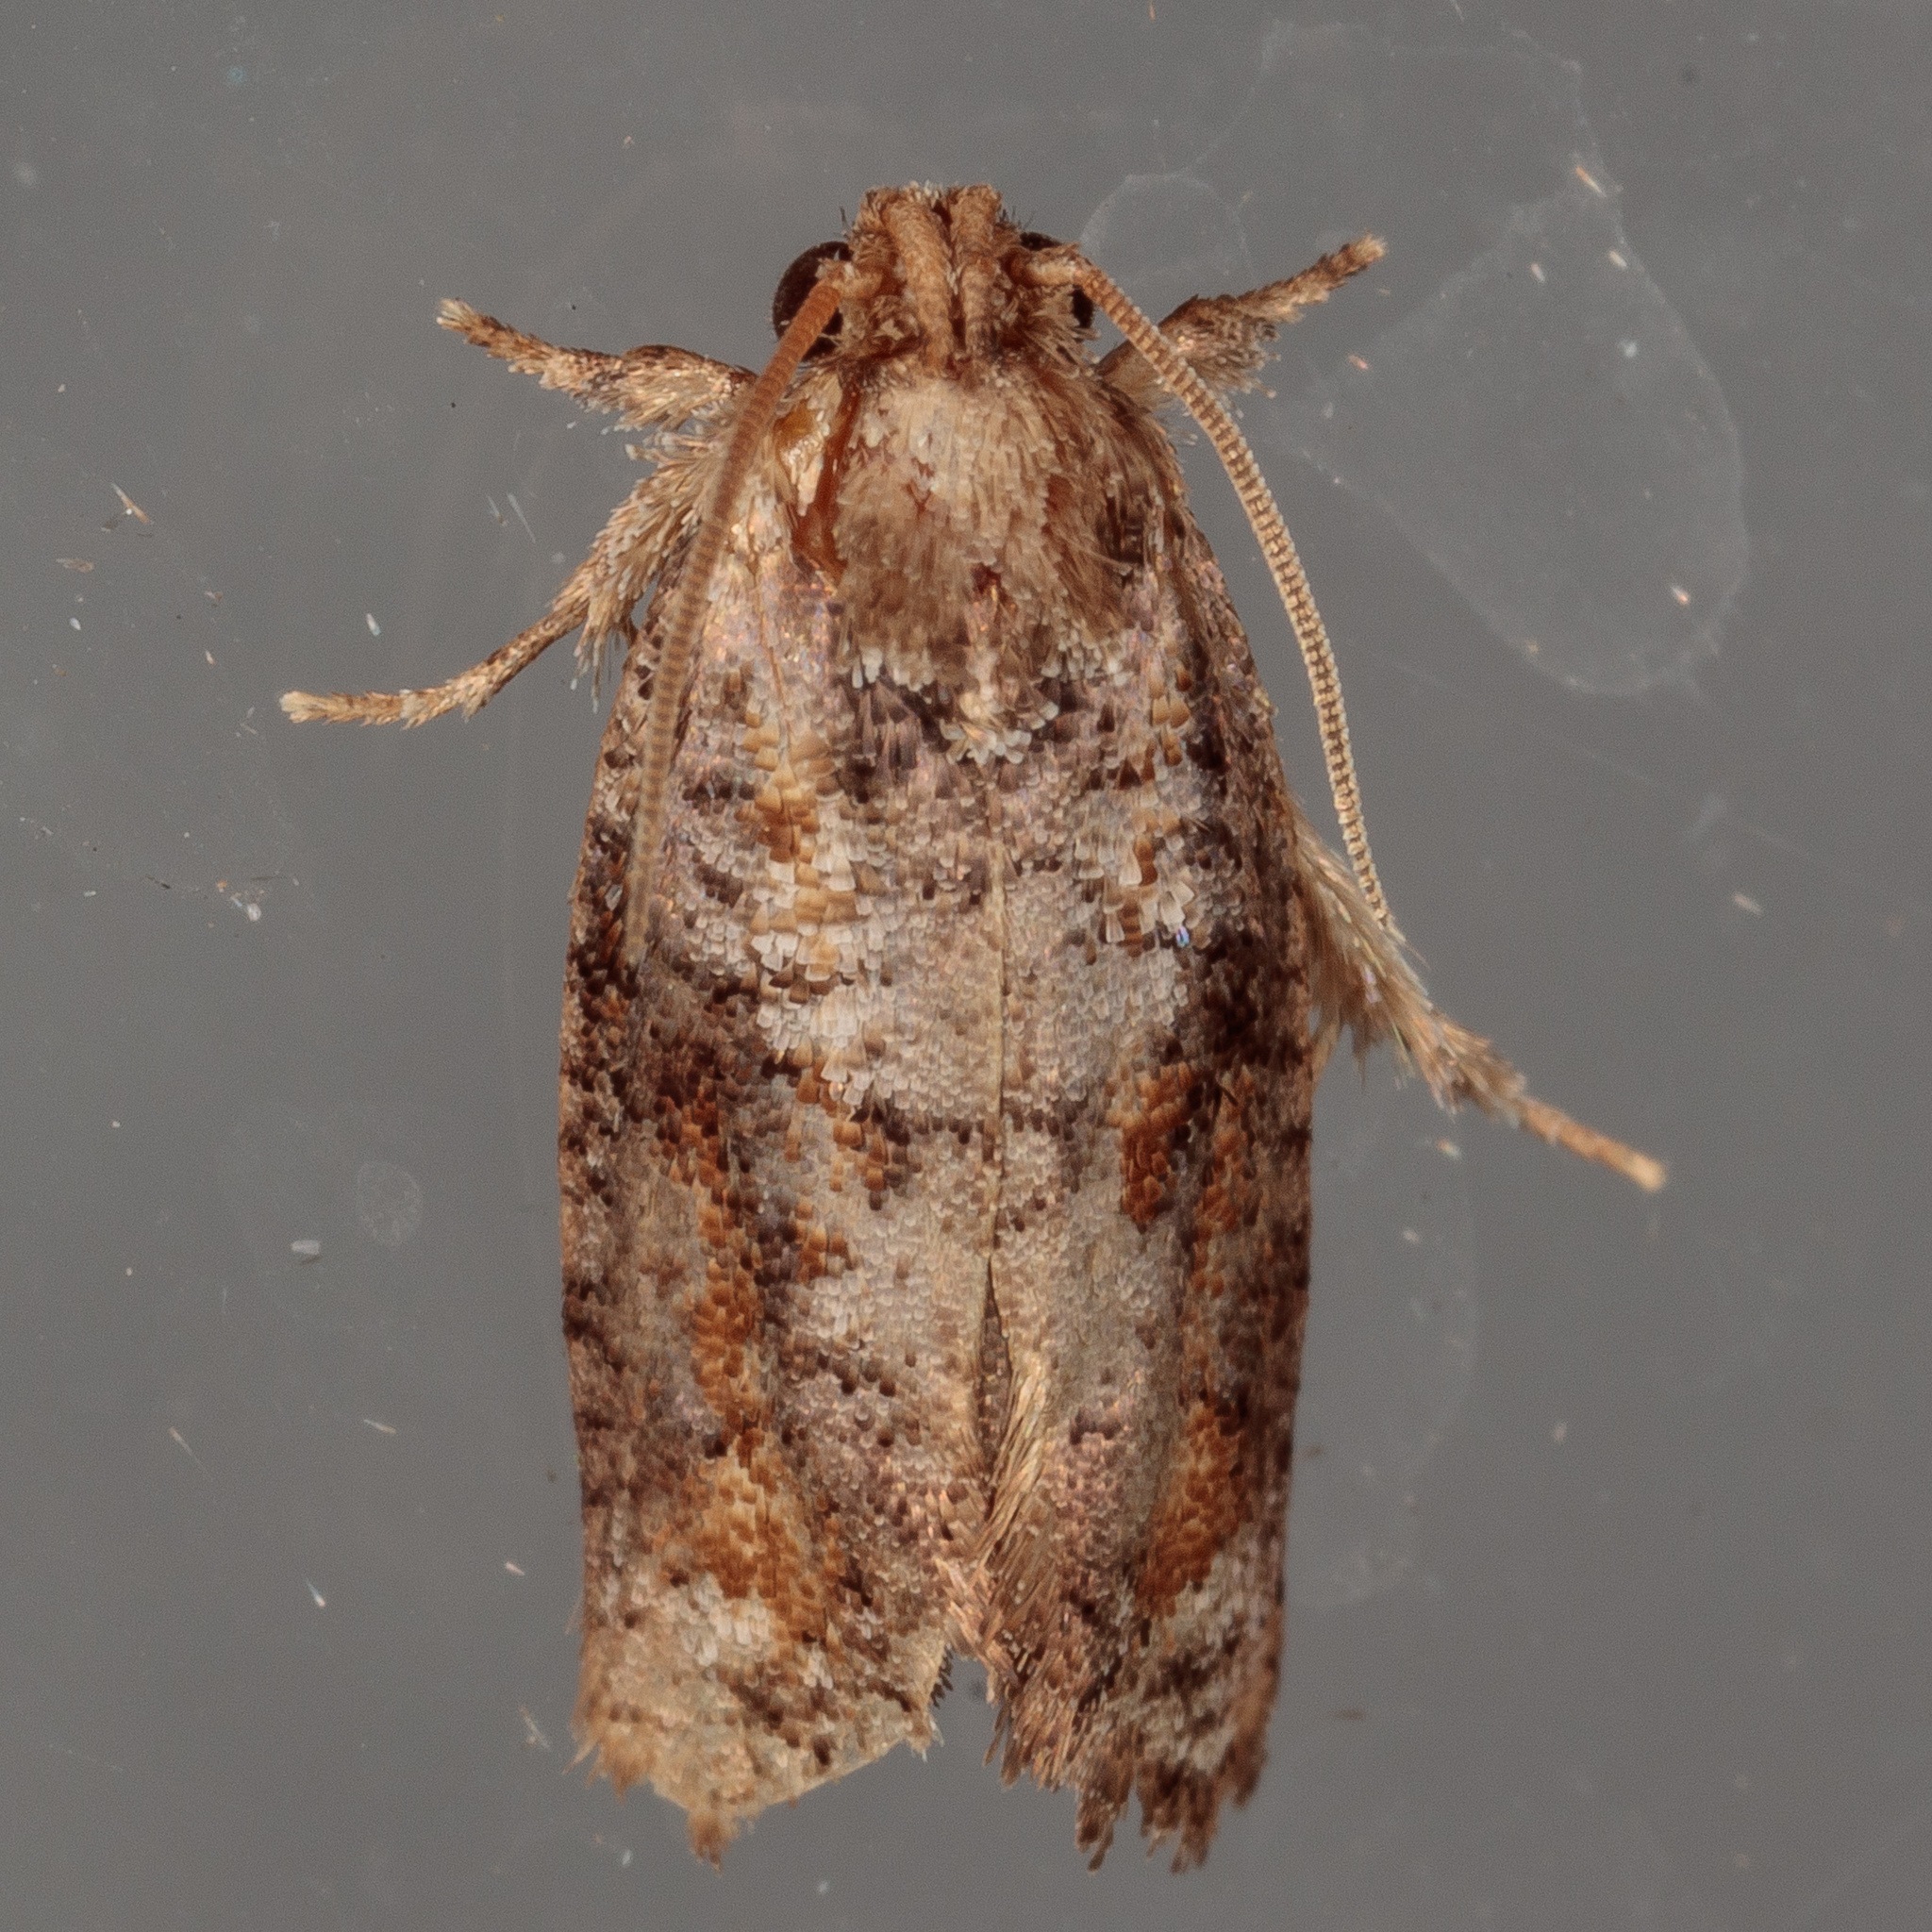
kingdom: Animalia
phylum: Arthropoda
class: Insecta
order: Lepidoptera
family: Tineidae
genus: Acrolophus
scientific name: Acrolophus piger
